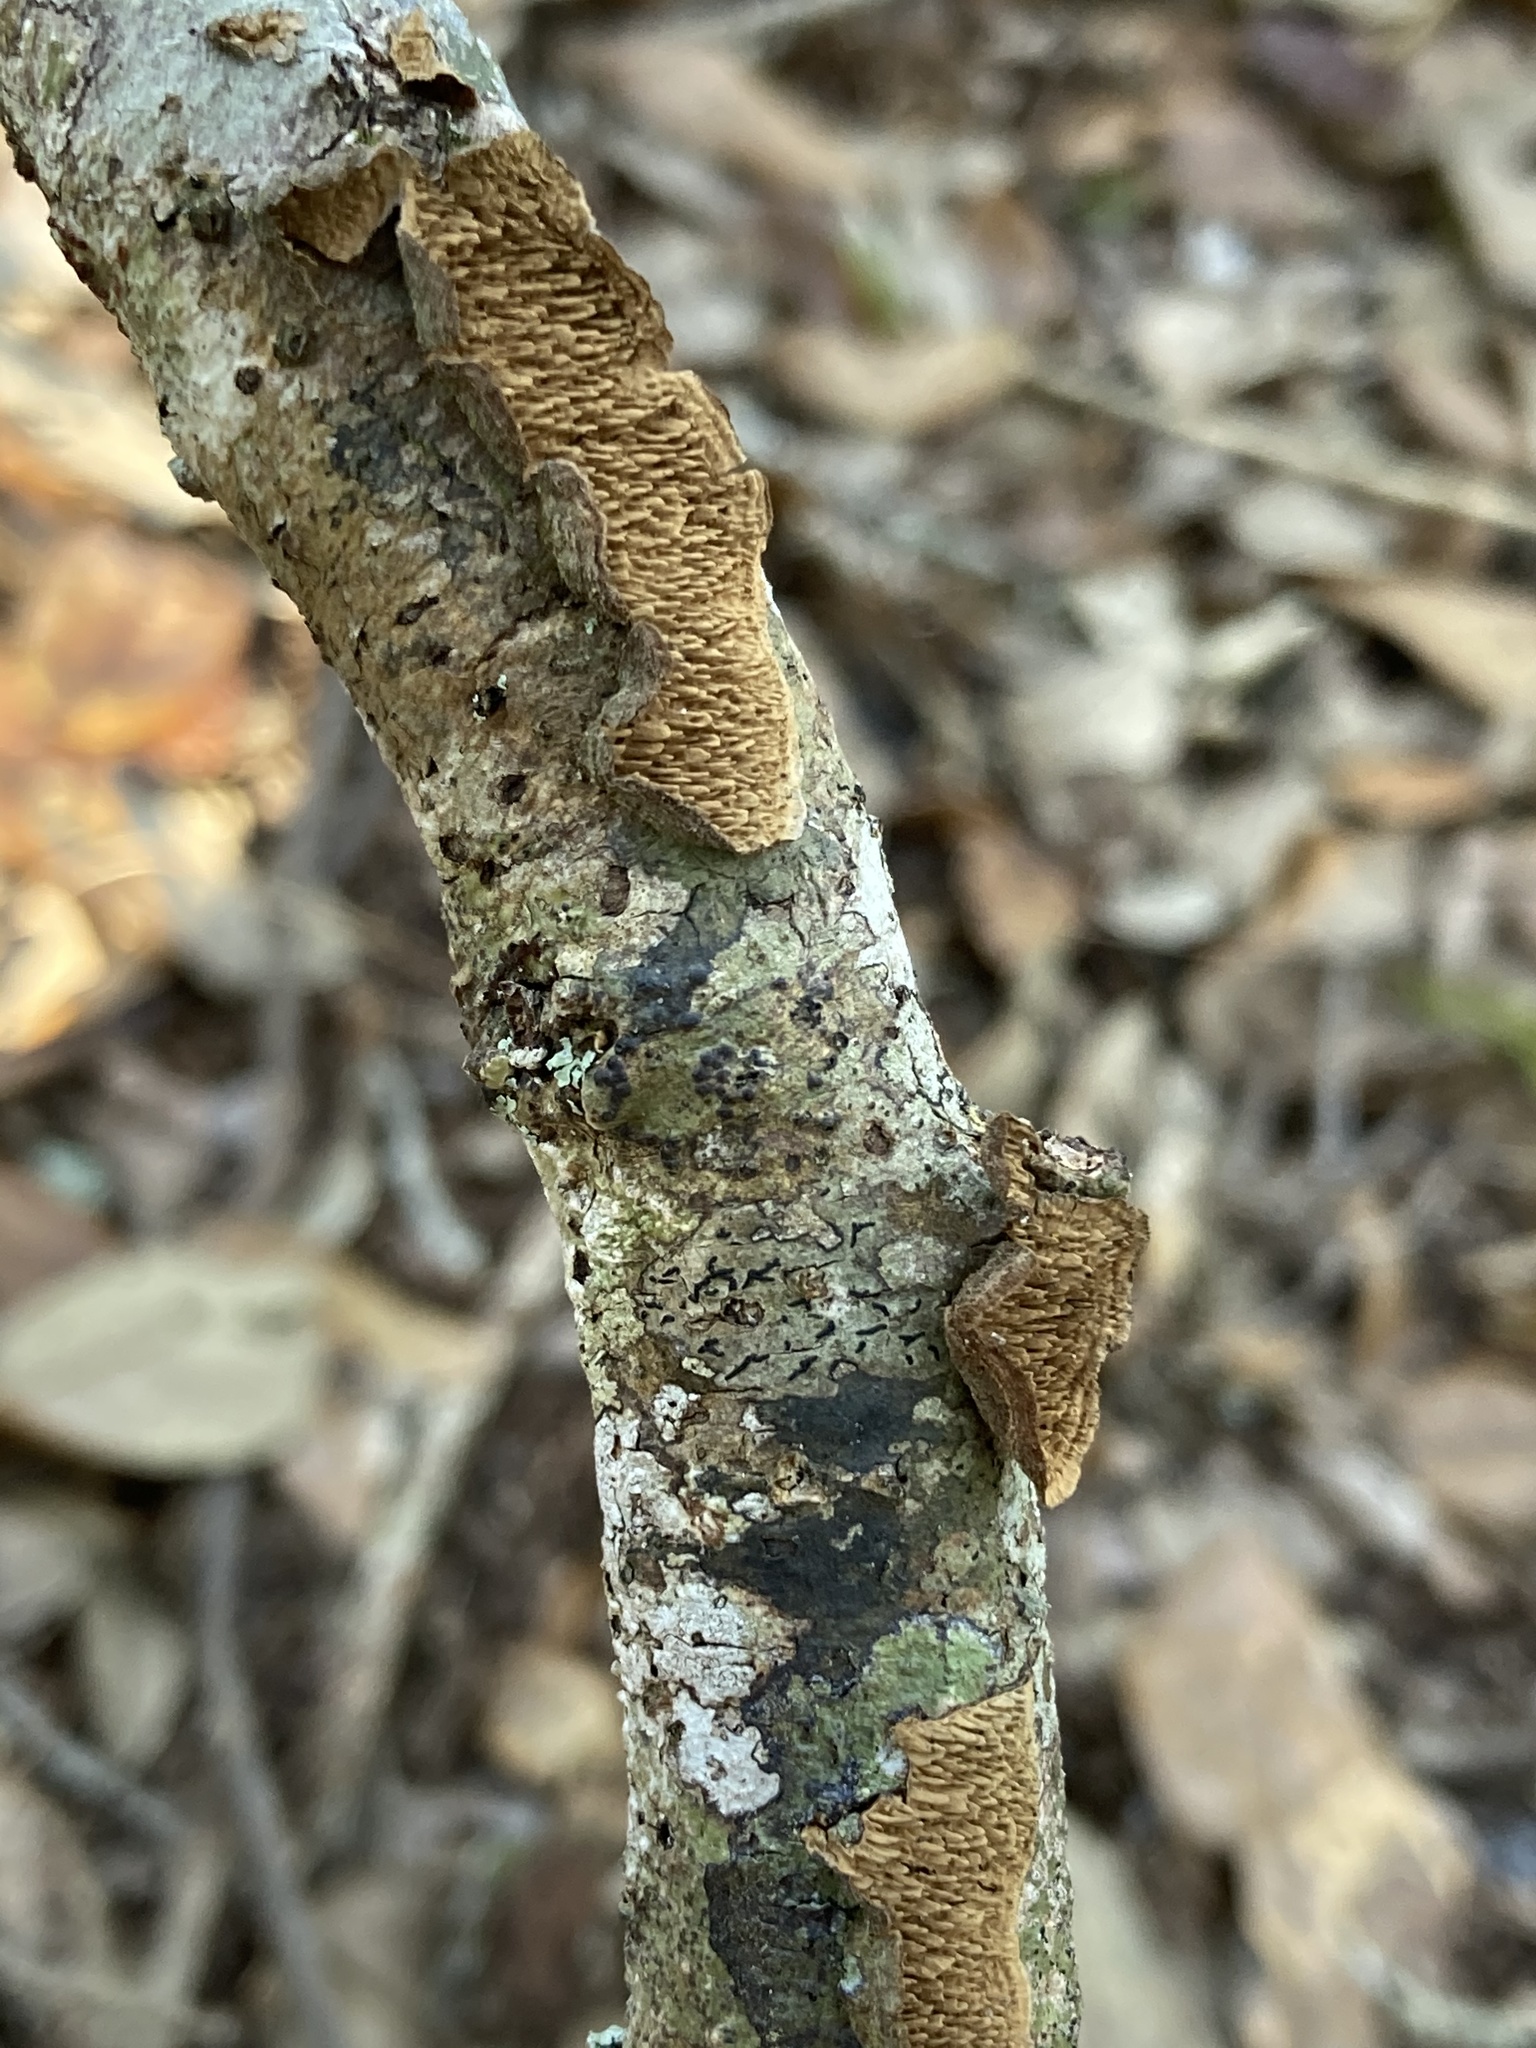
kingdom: Fungi
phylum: Basidiomycota
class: Agaricomycetes
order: Hymenochaetales
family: Hymenochaetaceae
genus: Hydnoporia
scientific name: Hydnoporia olivacea
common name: Brown-toothed crust fungus
